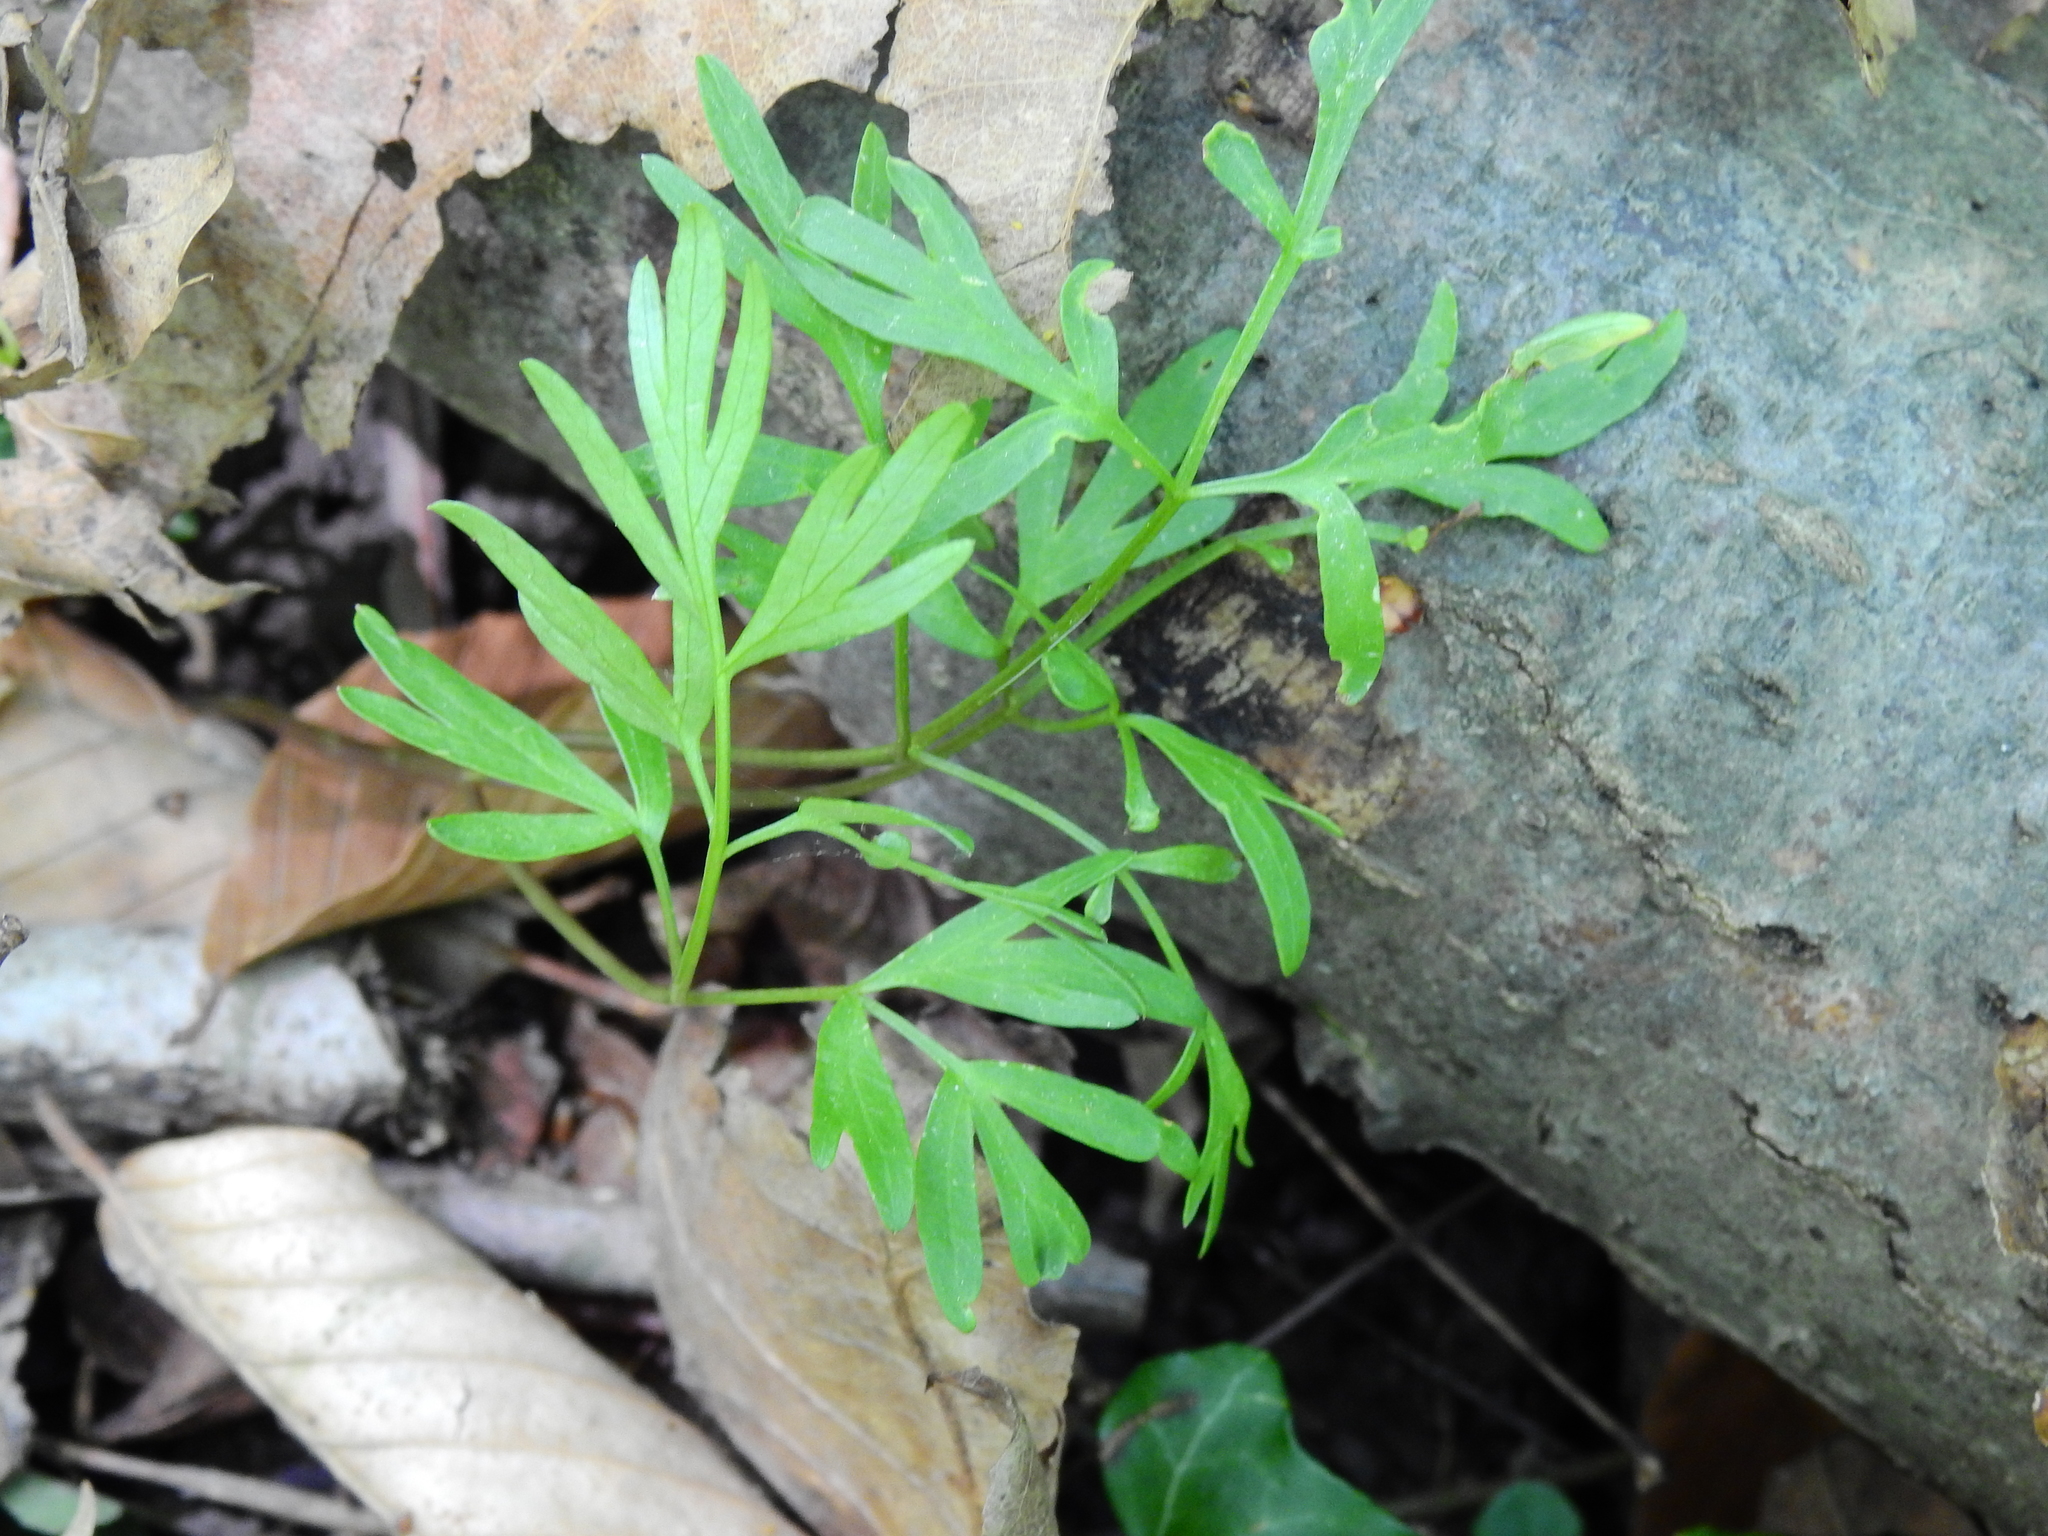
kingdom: Plantae
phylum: Tracheophyta
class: Magnoliopsida
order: Apiales
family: Apiaceae
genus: Erigenia
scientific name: Erigenia bulbosa
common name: Pepper-and-salt
